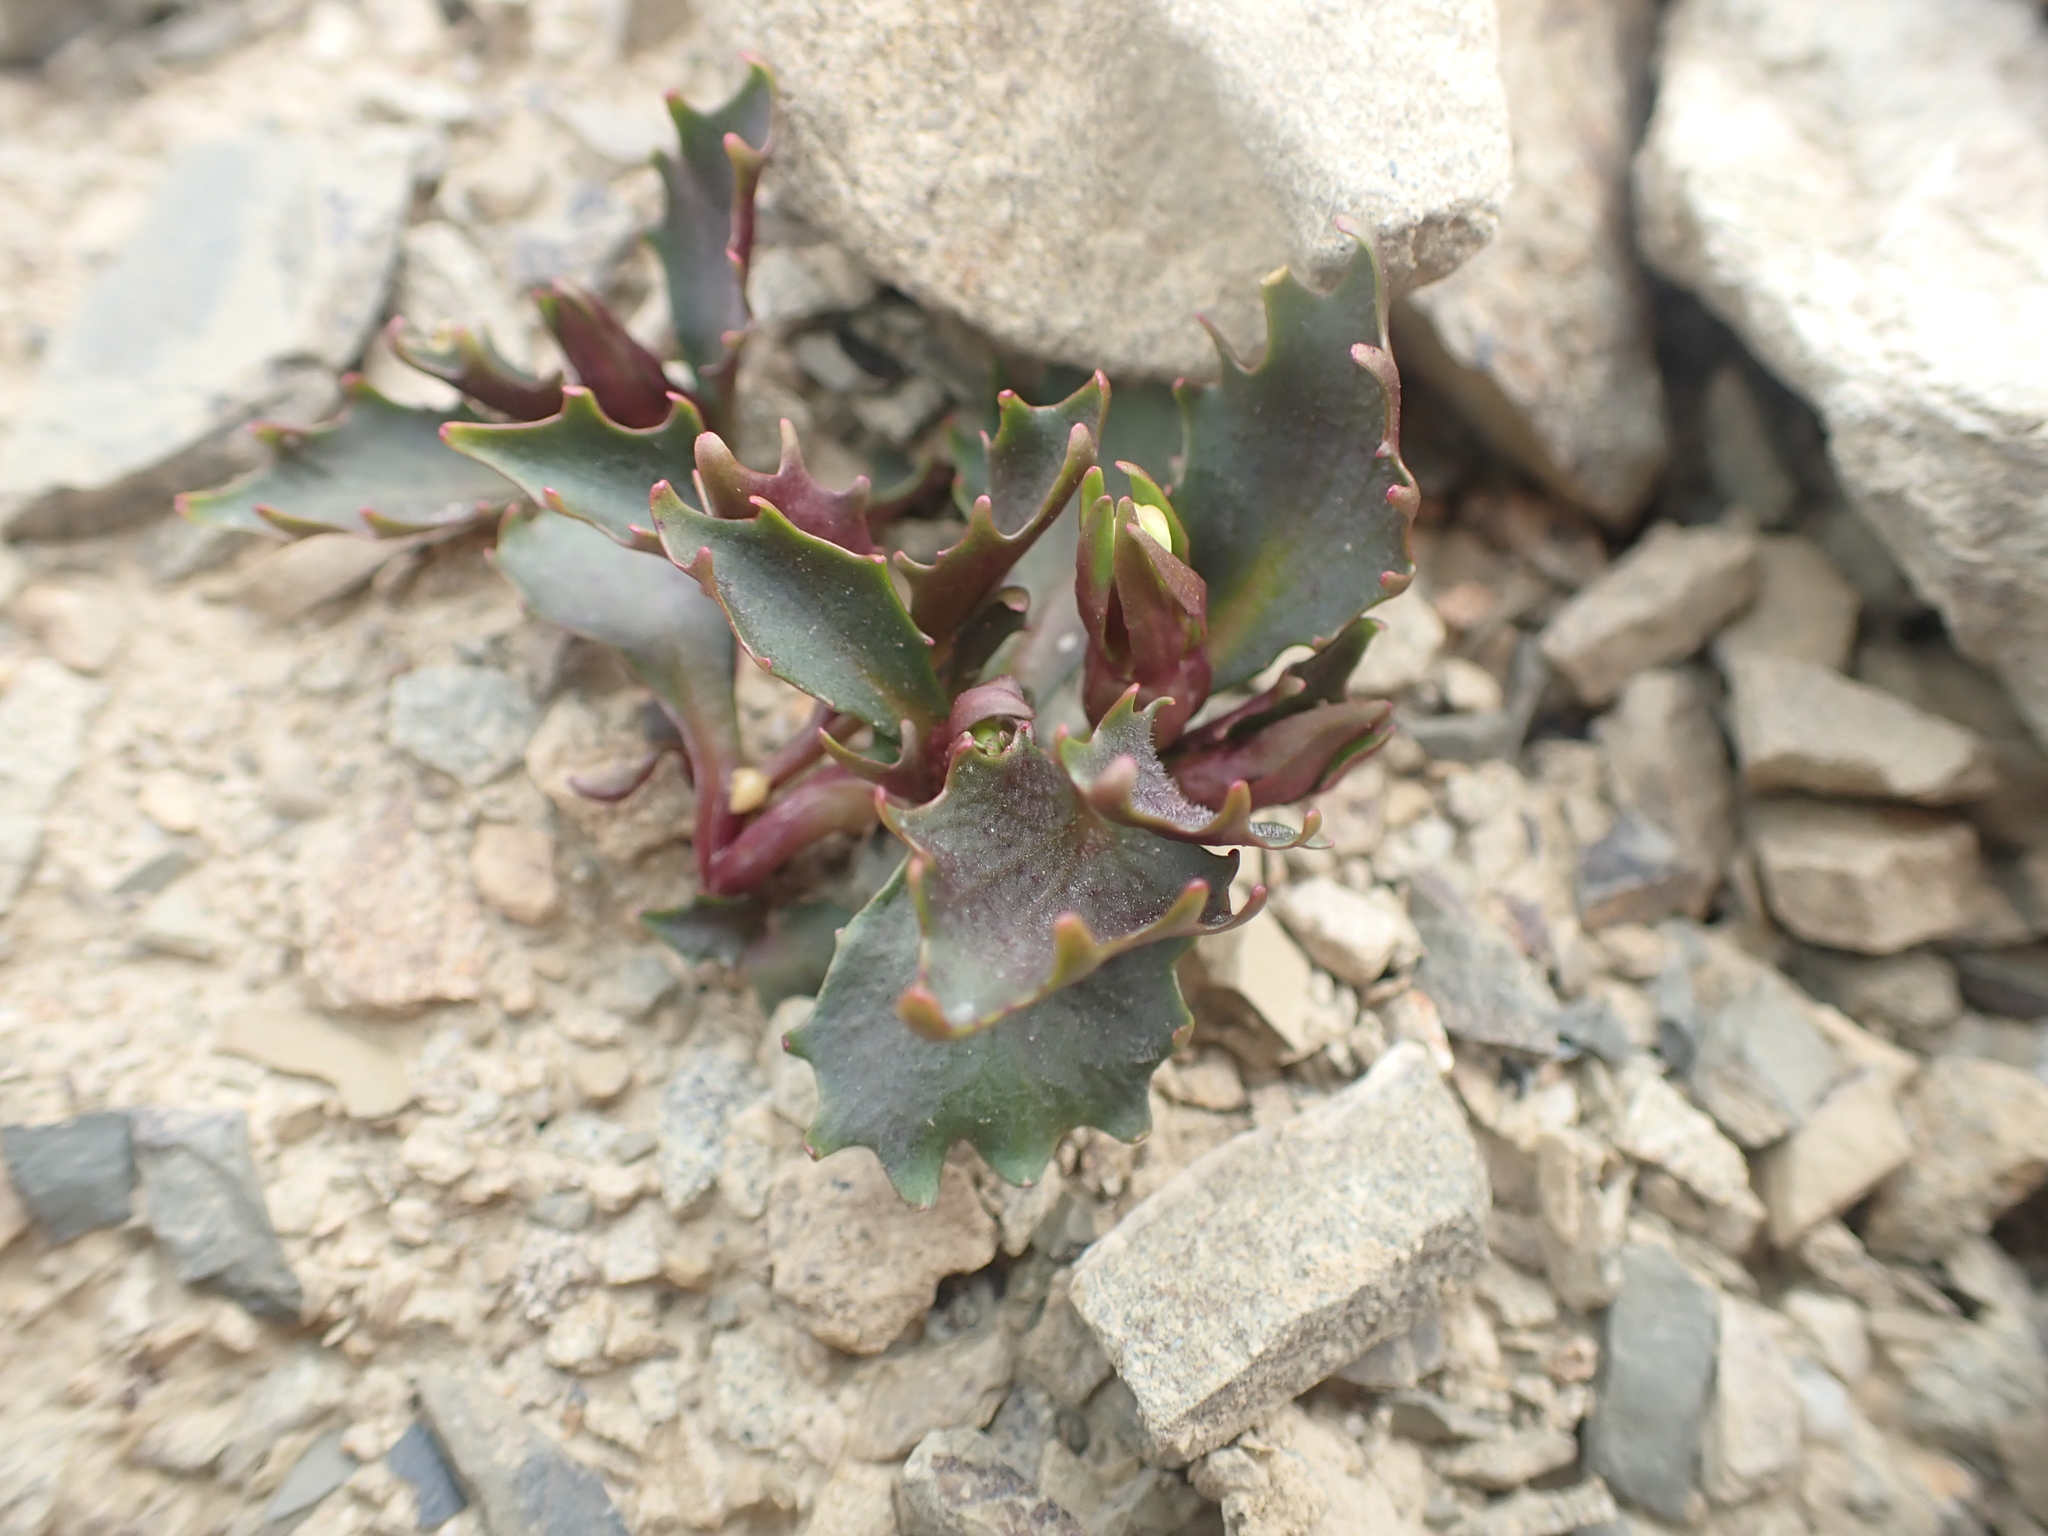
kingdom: Plantae
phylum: Tracheophyta
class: Magnoliopsida
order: Asterales
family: Campanulaceae
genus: Lobelia
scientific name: Lobelia roughii
